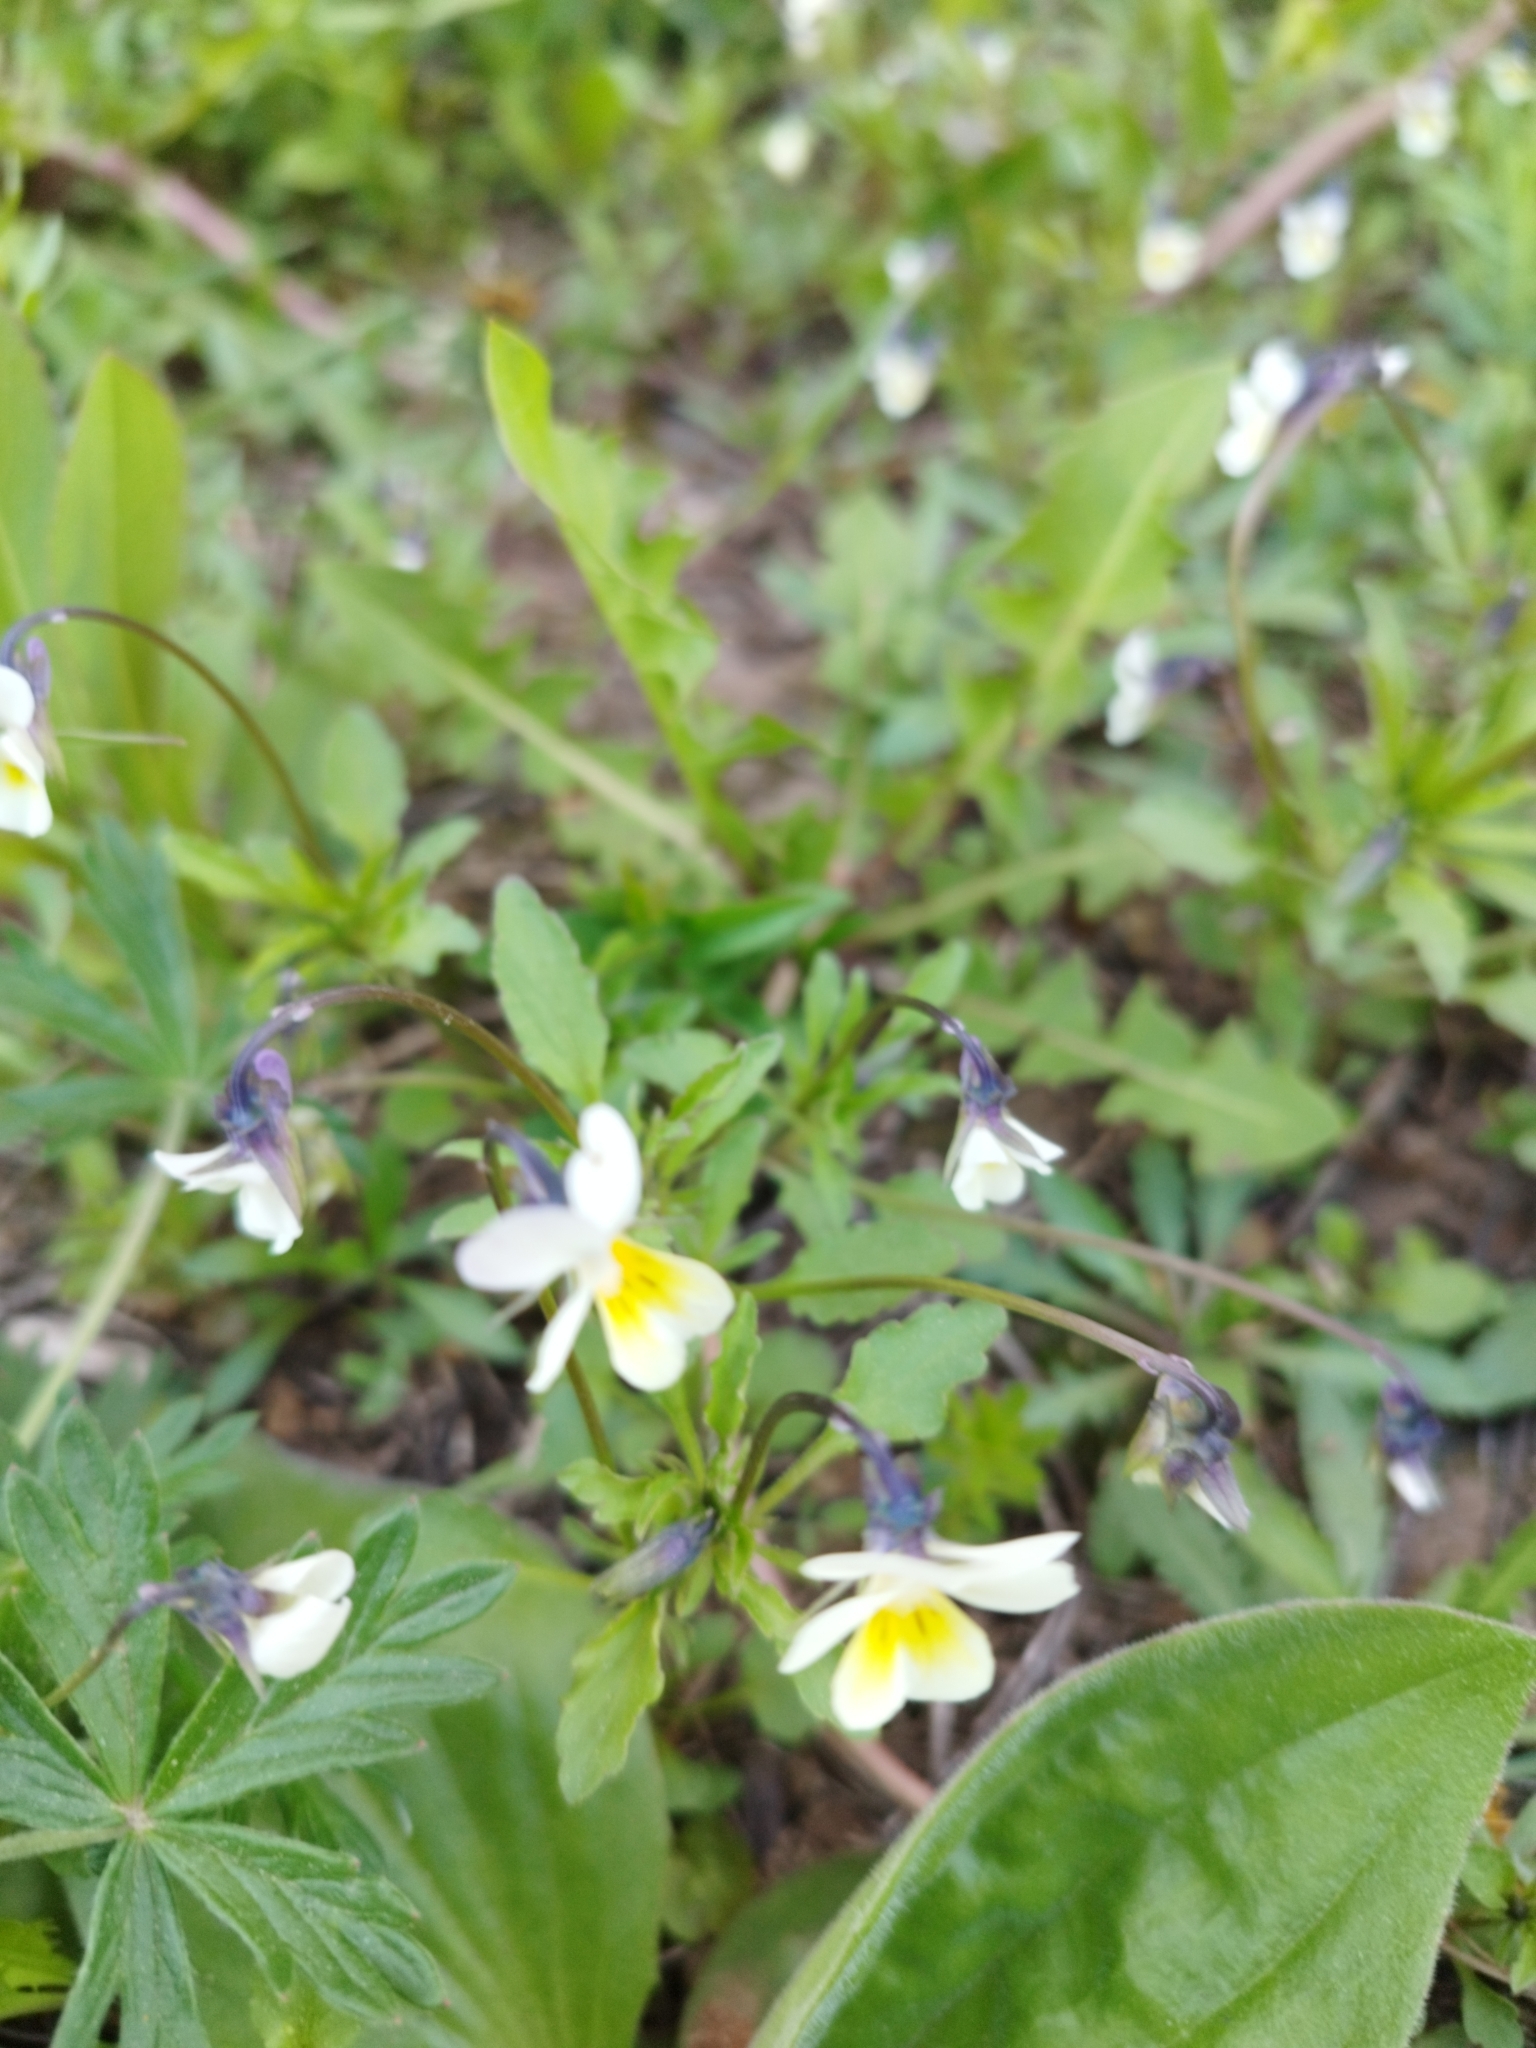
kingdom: Plantae
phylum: Tracheophyta
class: Magnoliopsida
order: Malpighiales
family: Violaceae
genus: Viola
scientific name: Viola arvensis
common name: Field pansy
